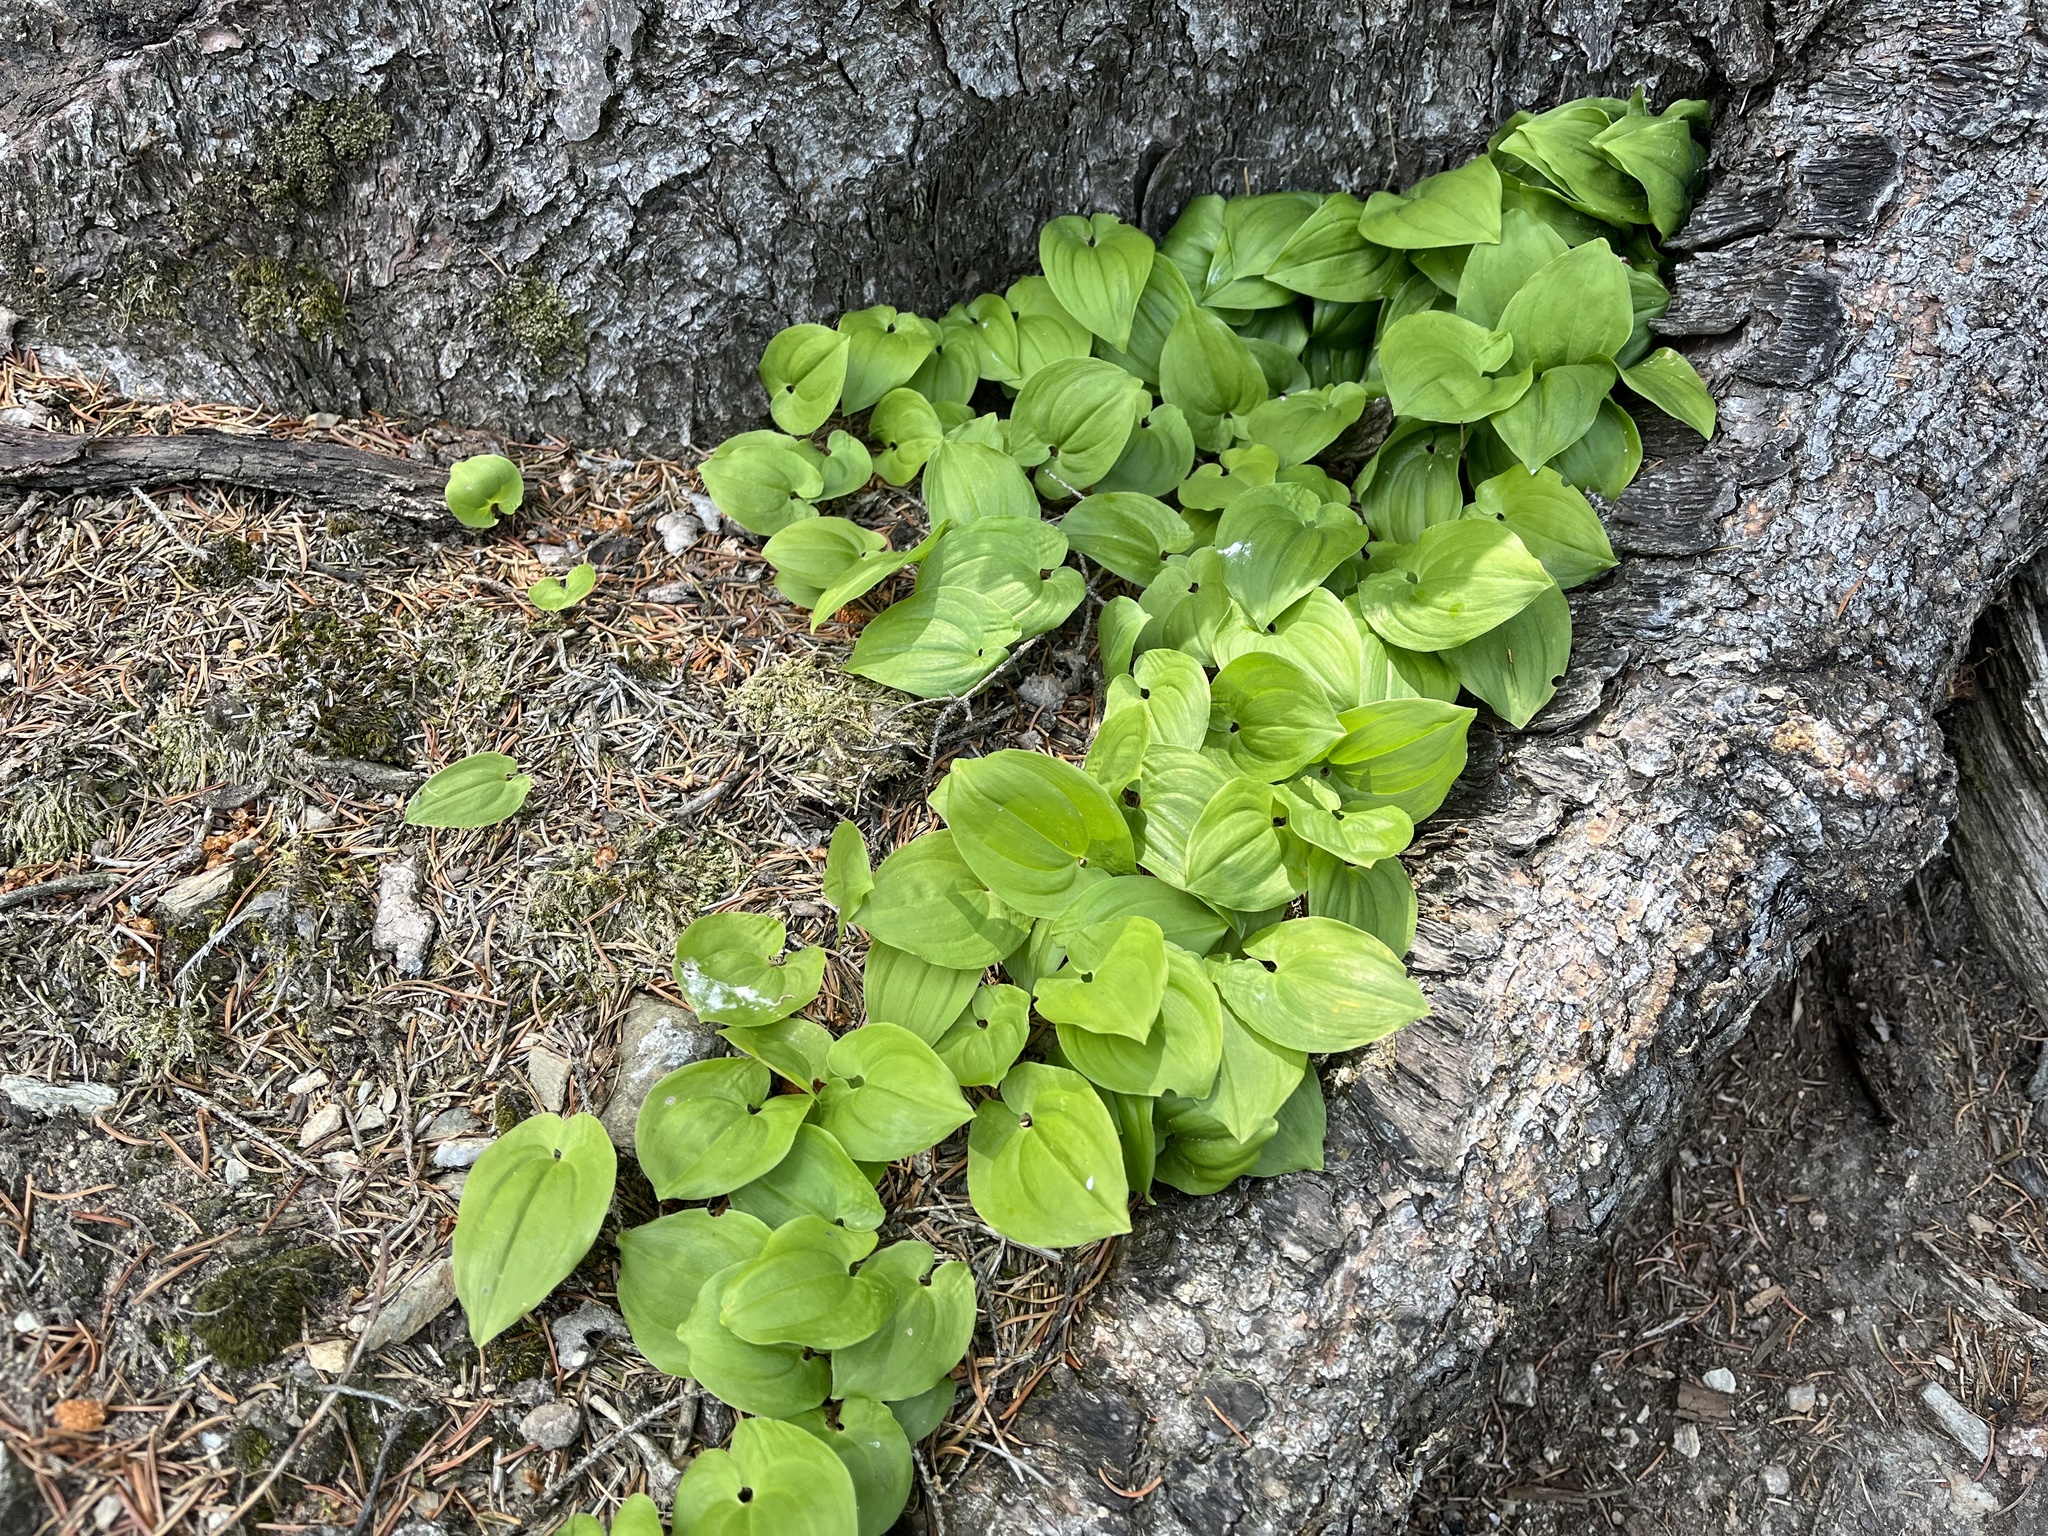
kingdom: Plantae
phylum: Tracheophyta
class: Liliopsida
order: Asparagales
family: Asparagaceae
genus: Maianthemum
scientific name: Maianthemum bifolium
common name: May lily
